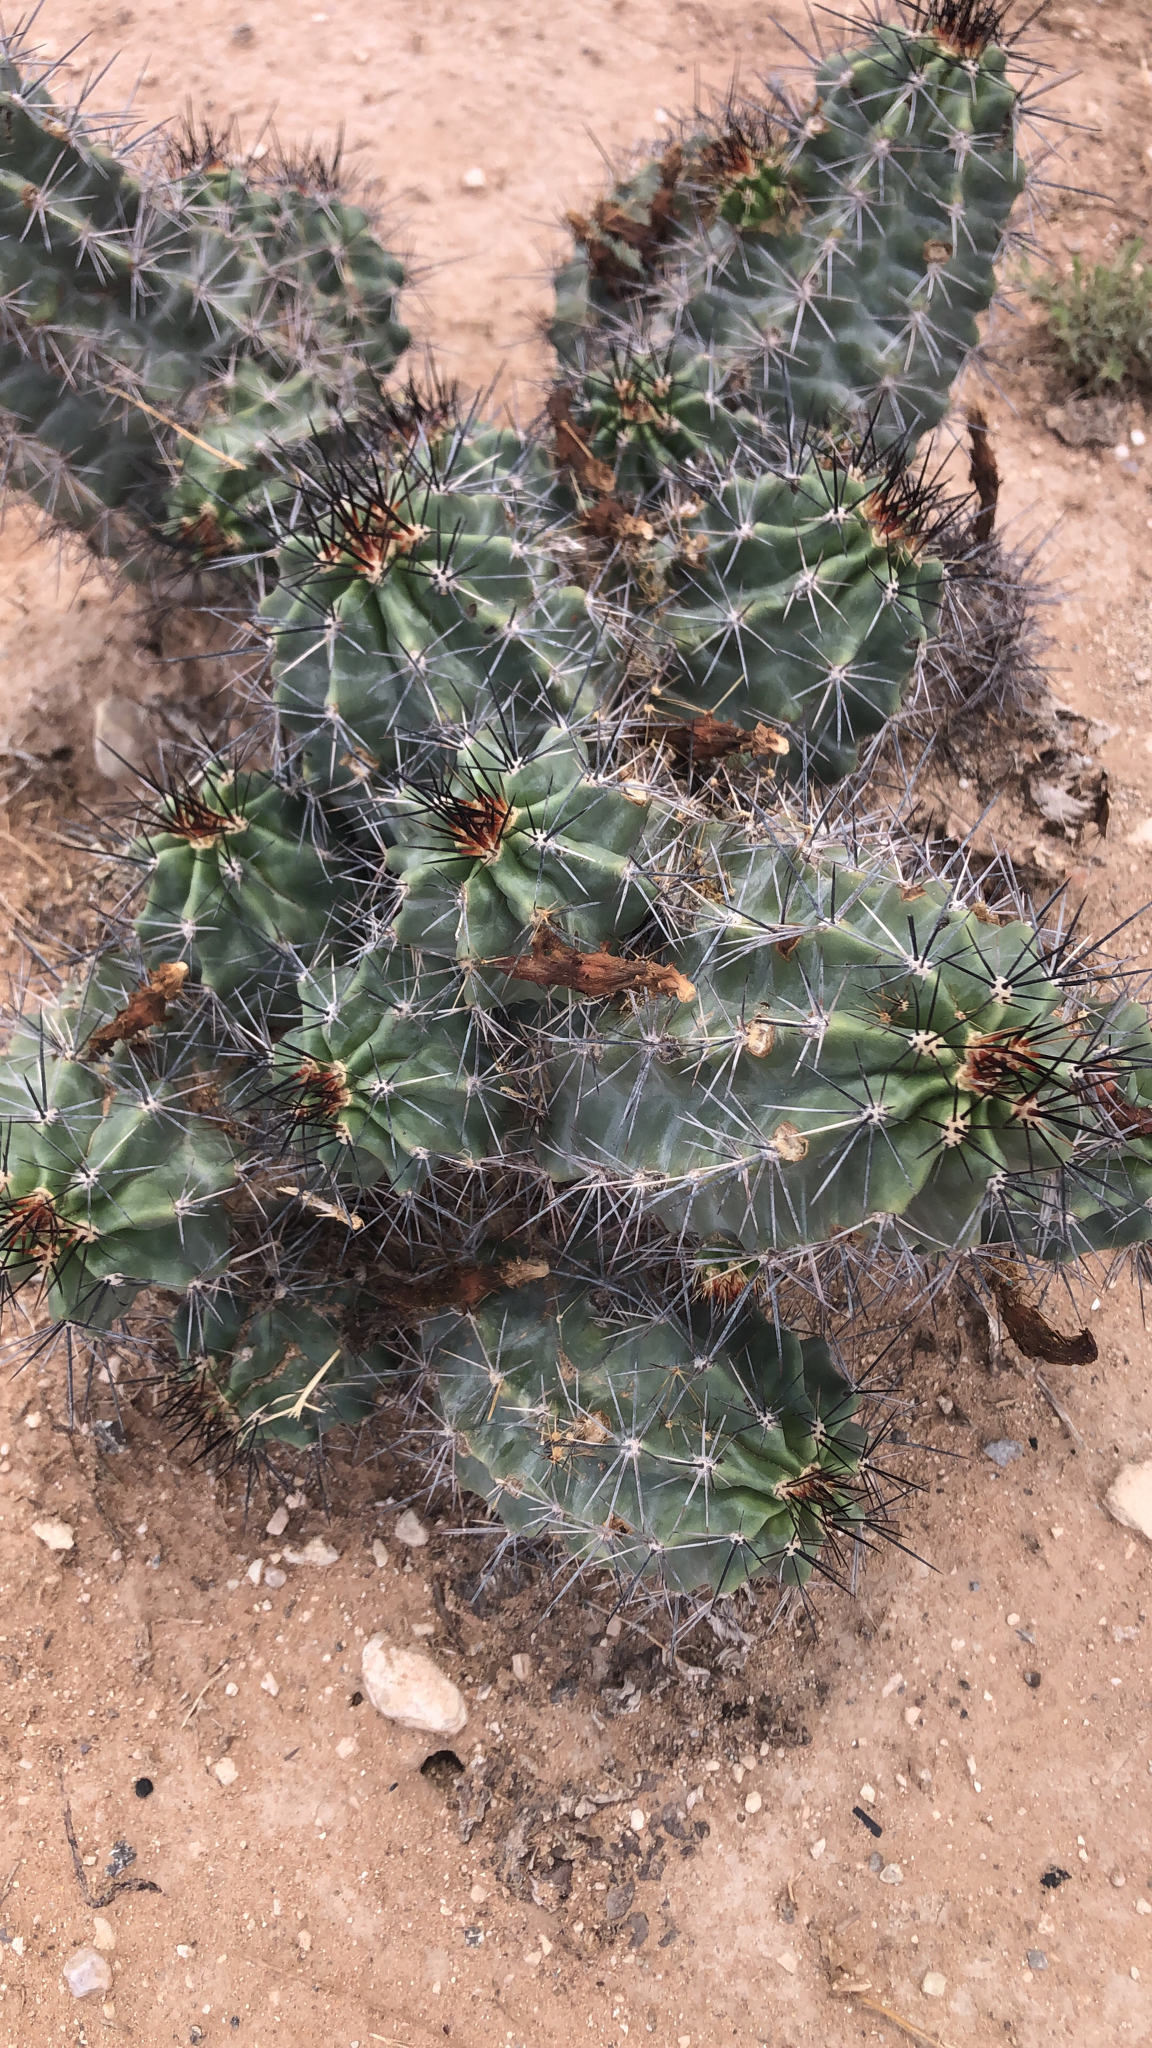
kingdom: Plantae
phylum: Tracheophyta
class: Magnoliopsida
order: Caryophyllales
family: Cactaceae
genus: Echinocereus
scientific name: Echinocereus coccineus
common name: Scarlet hedgehog cactus
